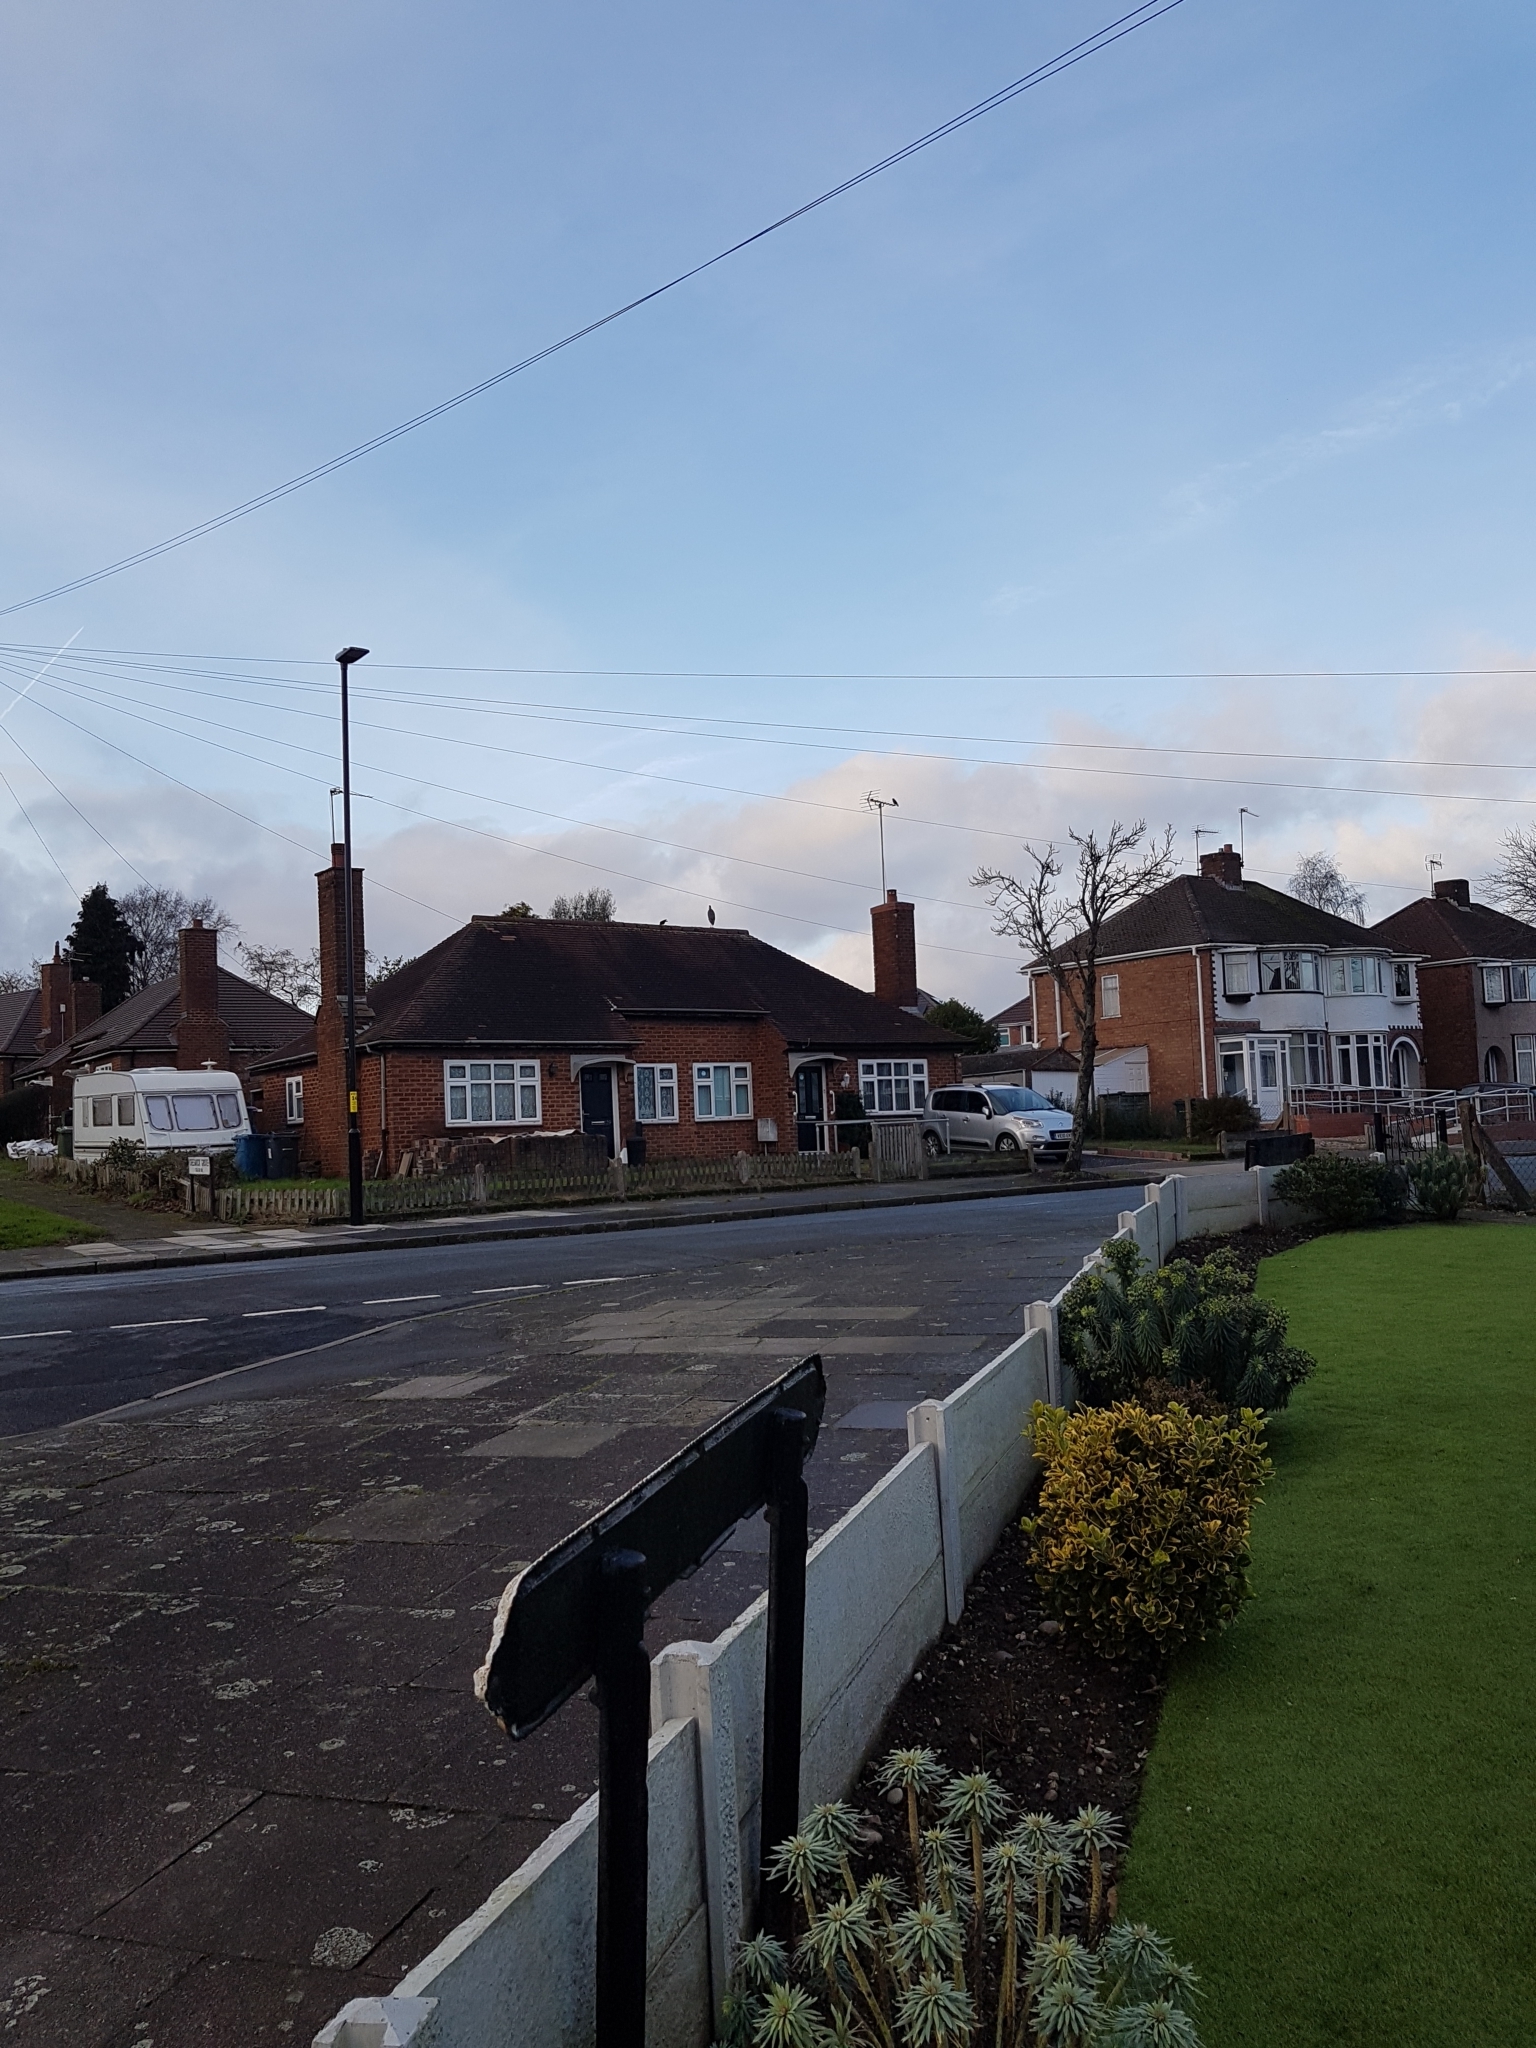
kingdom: Animalia
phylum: Chordata
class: Aves
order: Pelecaniformes
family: Ardeidae
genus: Ardea
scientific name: Ardea cinerea
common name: Grey heron
